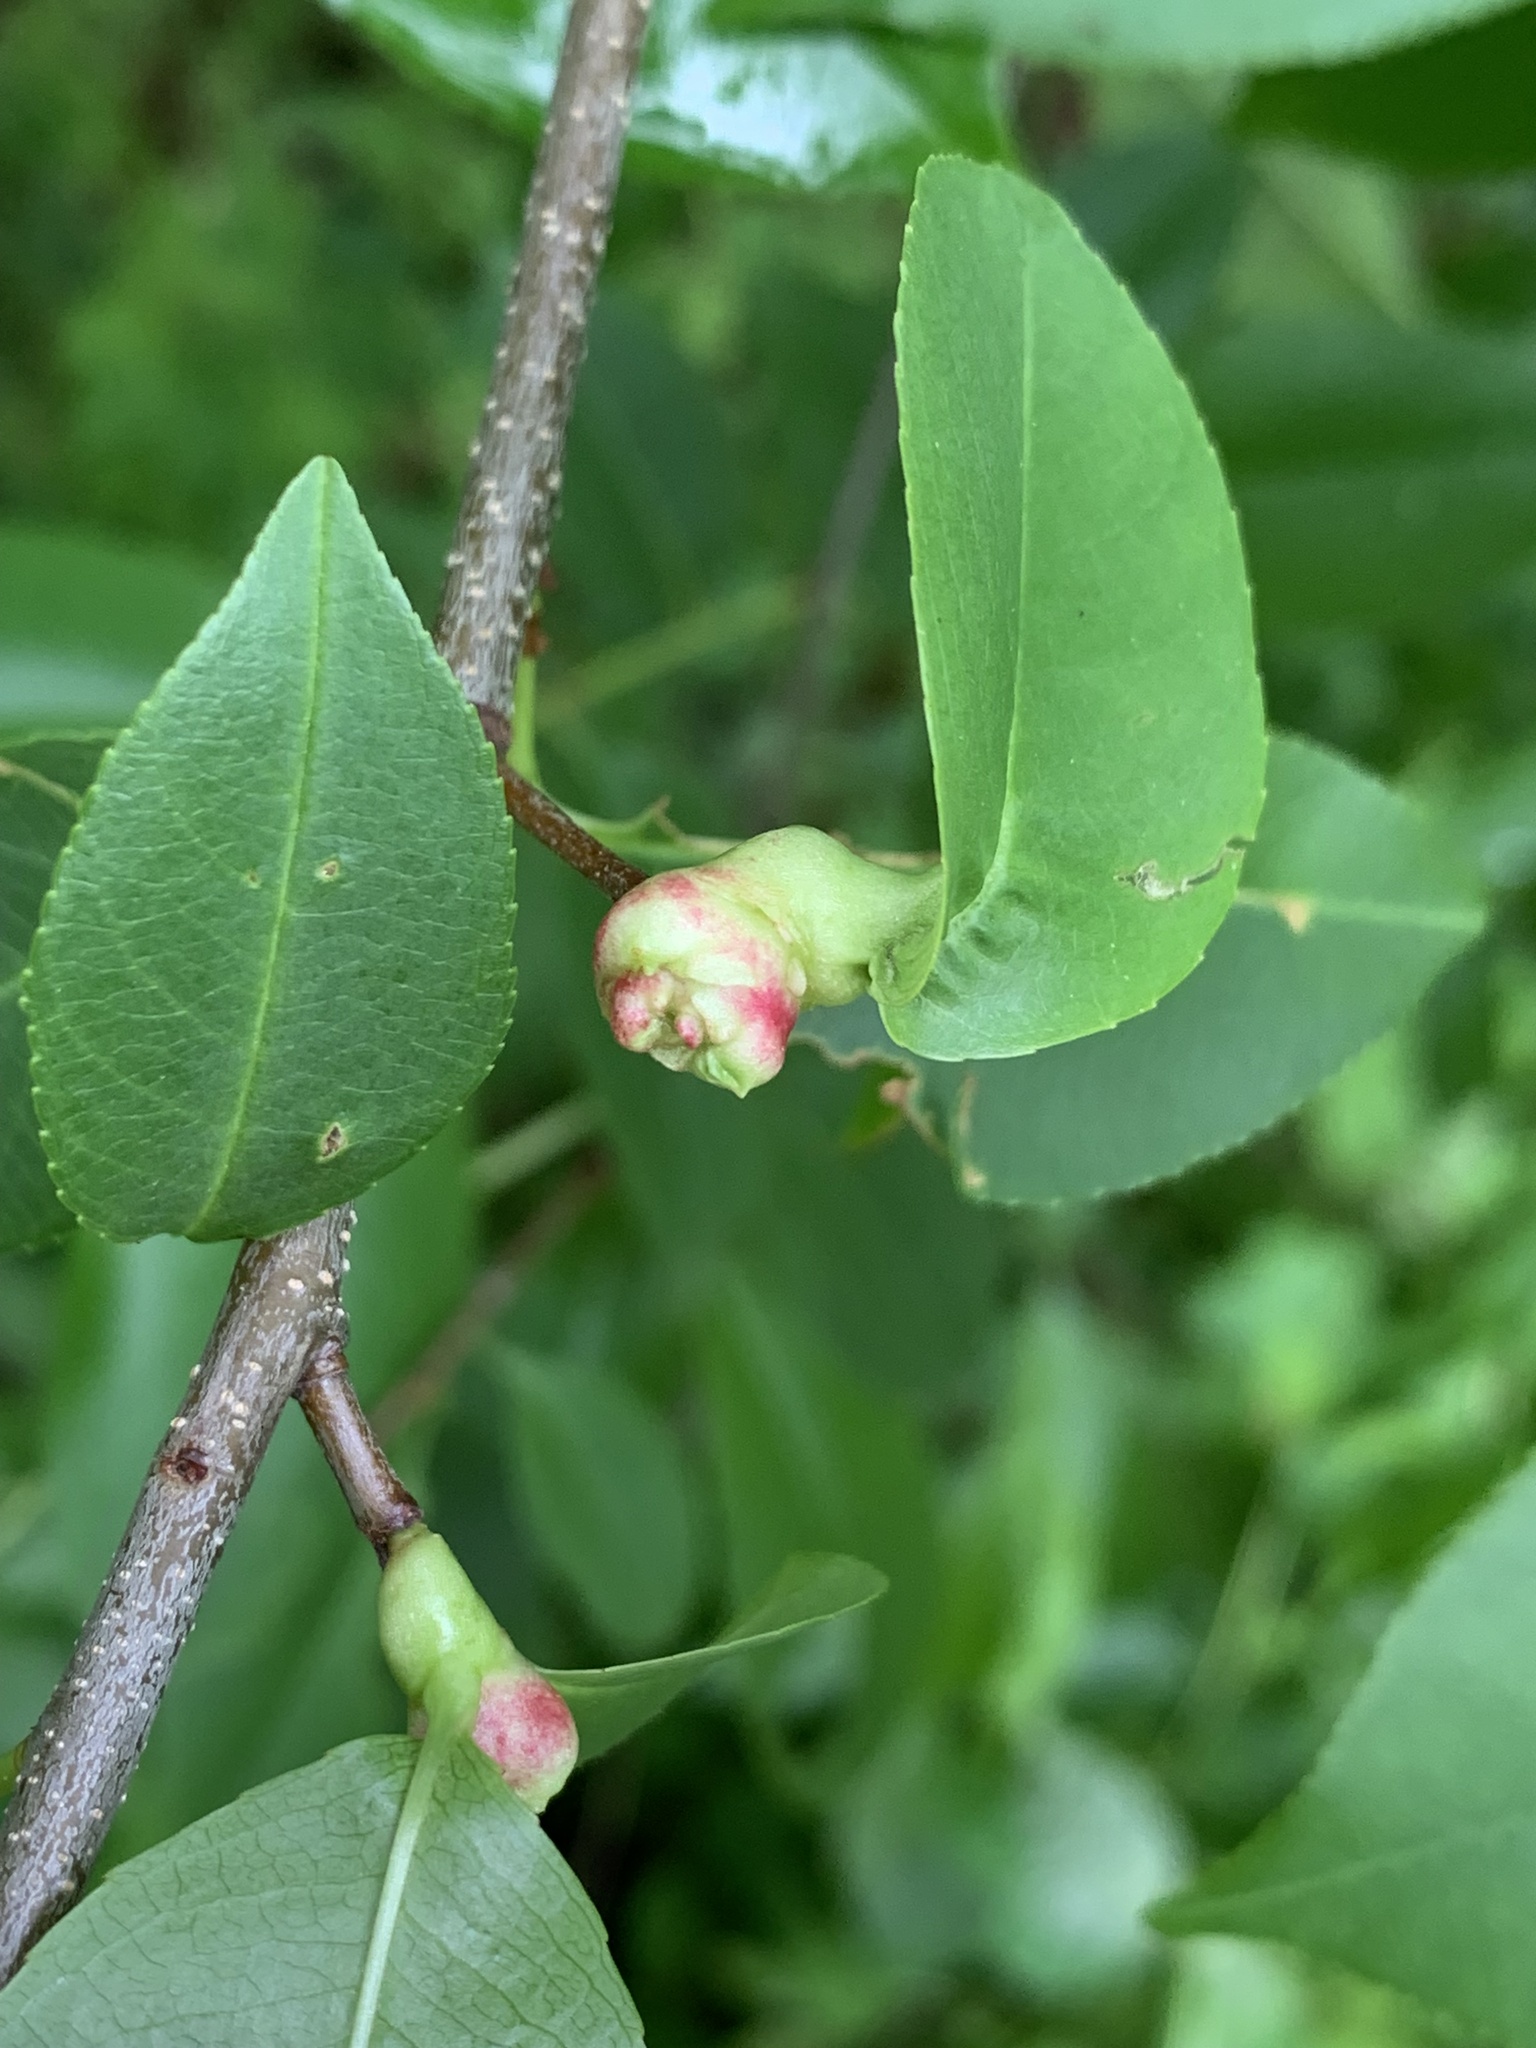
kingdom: Animalia
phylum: Arthropoda
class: Insecta
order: Diptera
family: Cecidomyiidae
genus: Contarinia
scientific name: Contarinia cerasiserotinae
